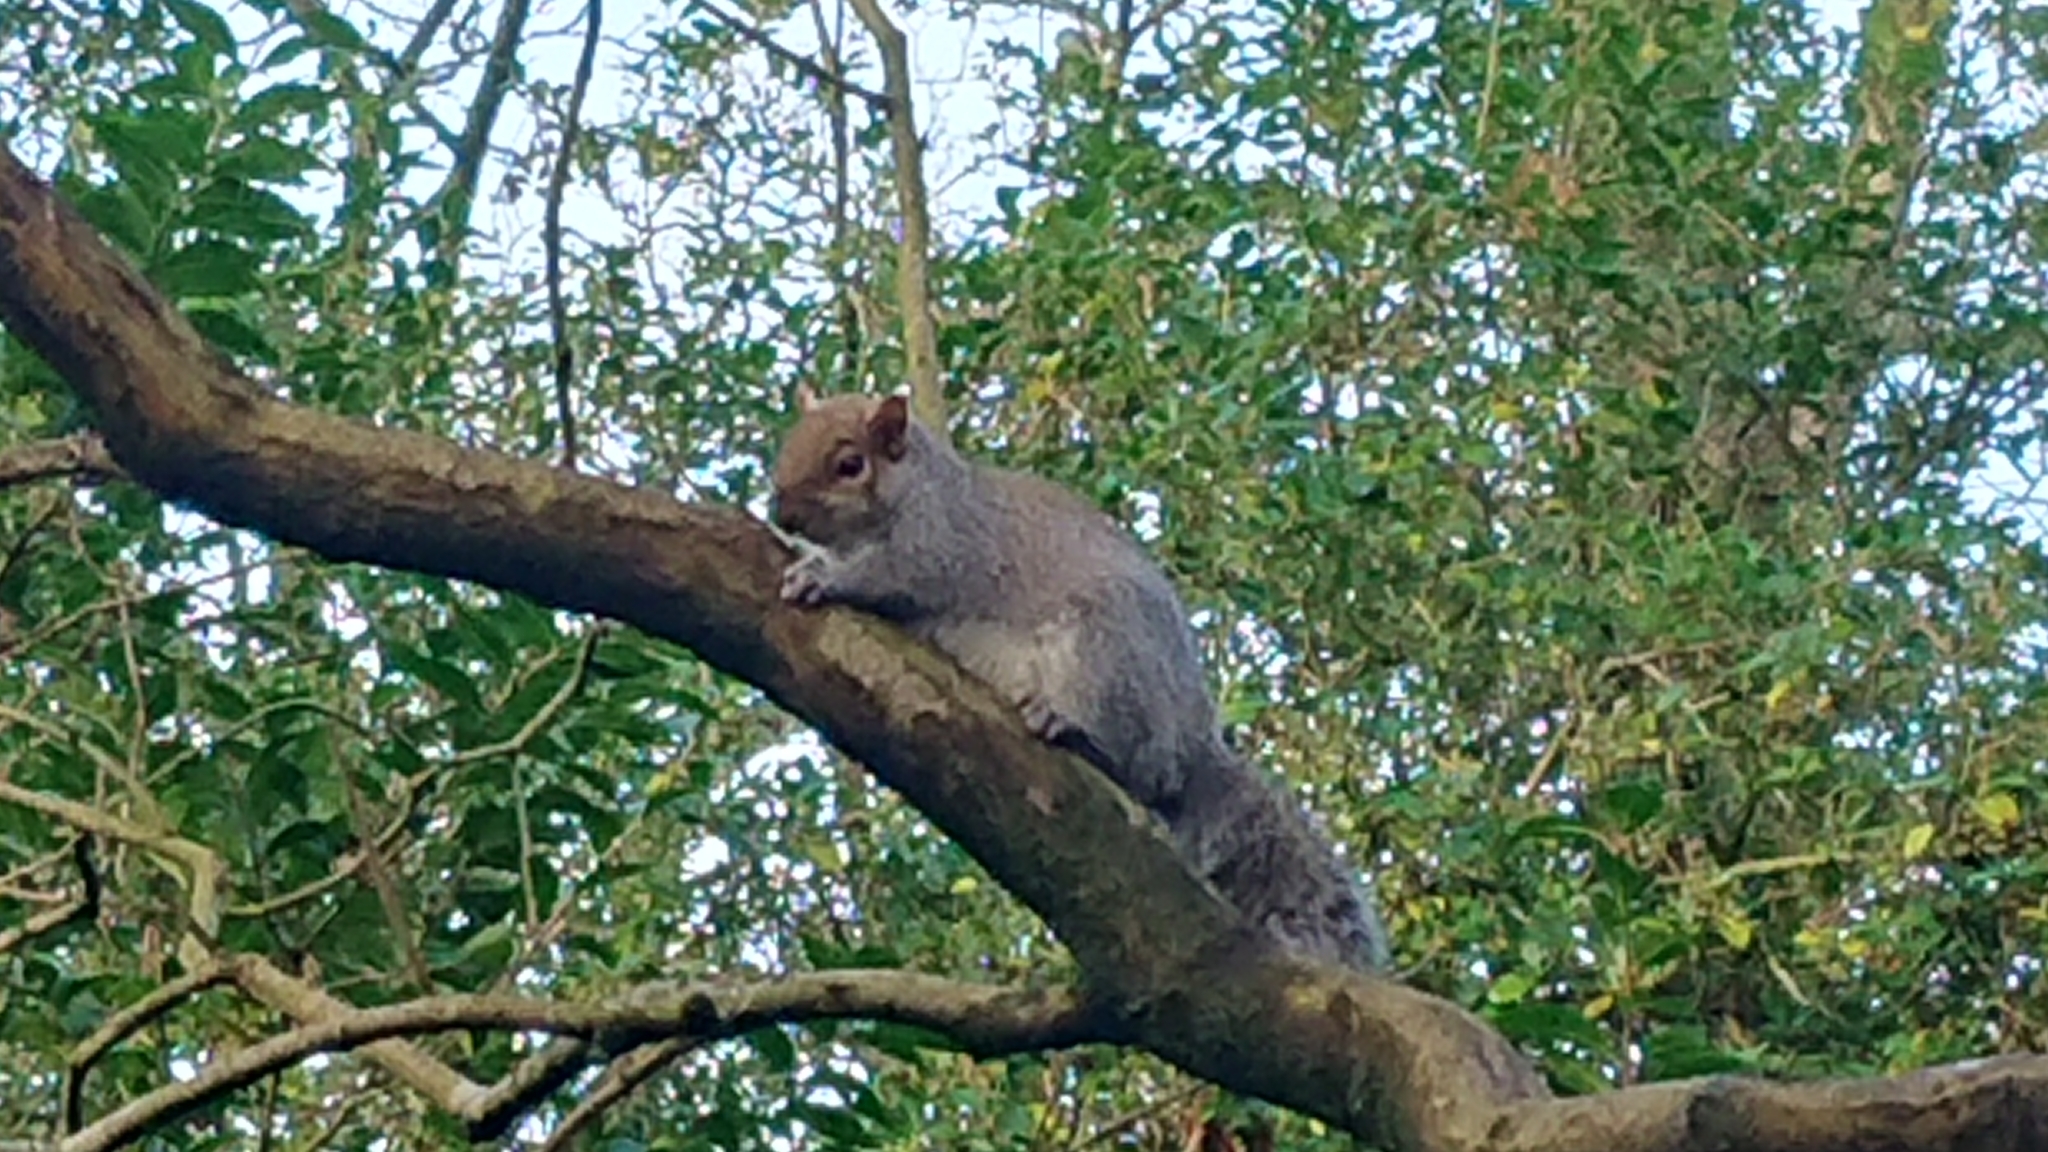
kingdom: Animalia
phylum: Chordata
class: Mammalia
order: Rodentia
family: Sciuridae
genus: Sciurus
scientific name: Sciurus carolinensis
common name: Eastern gray squirrel
